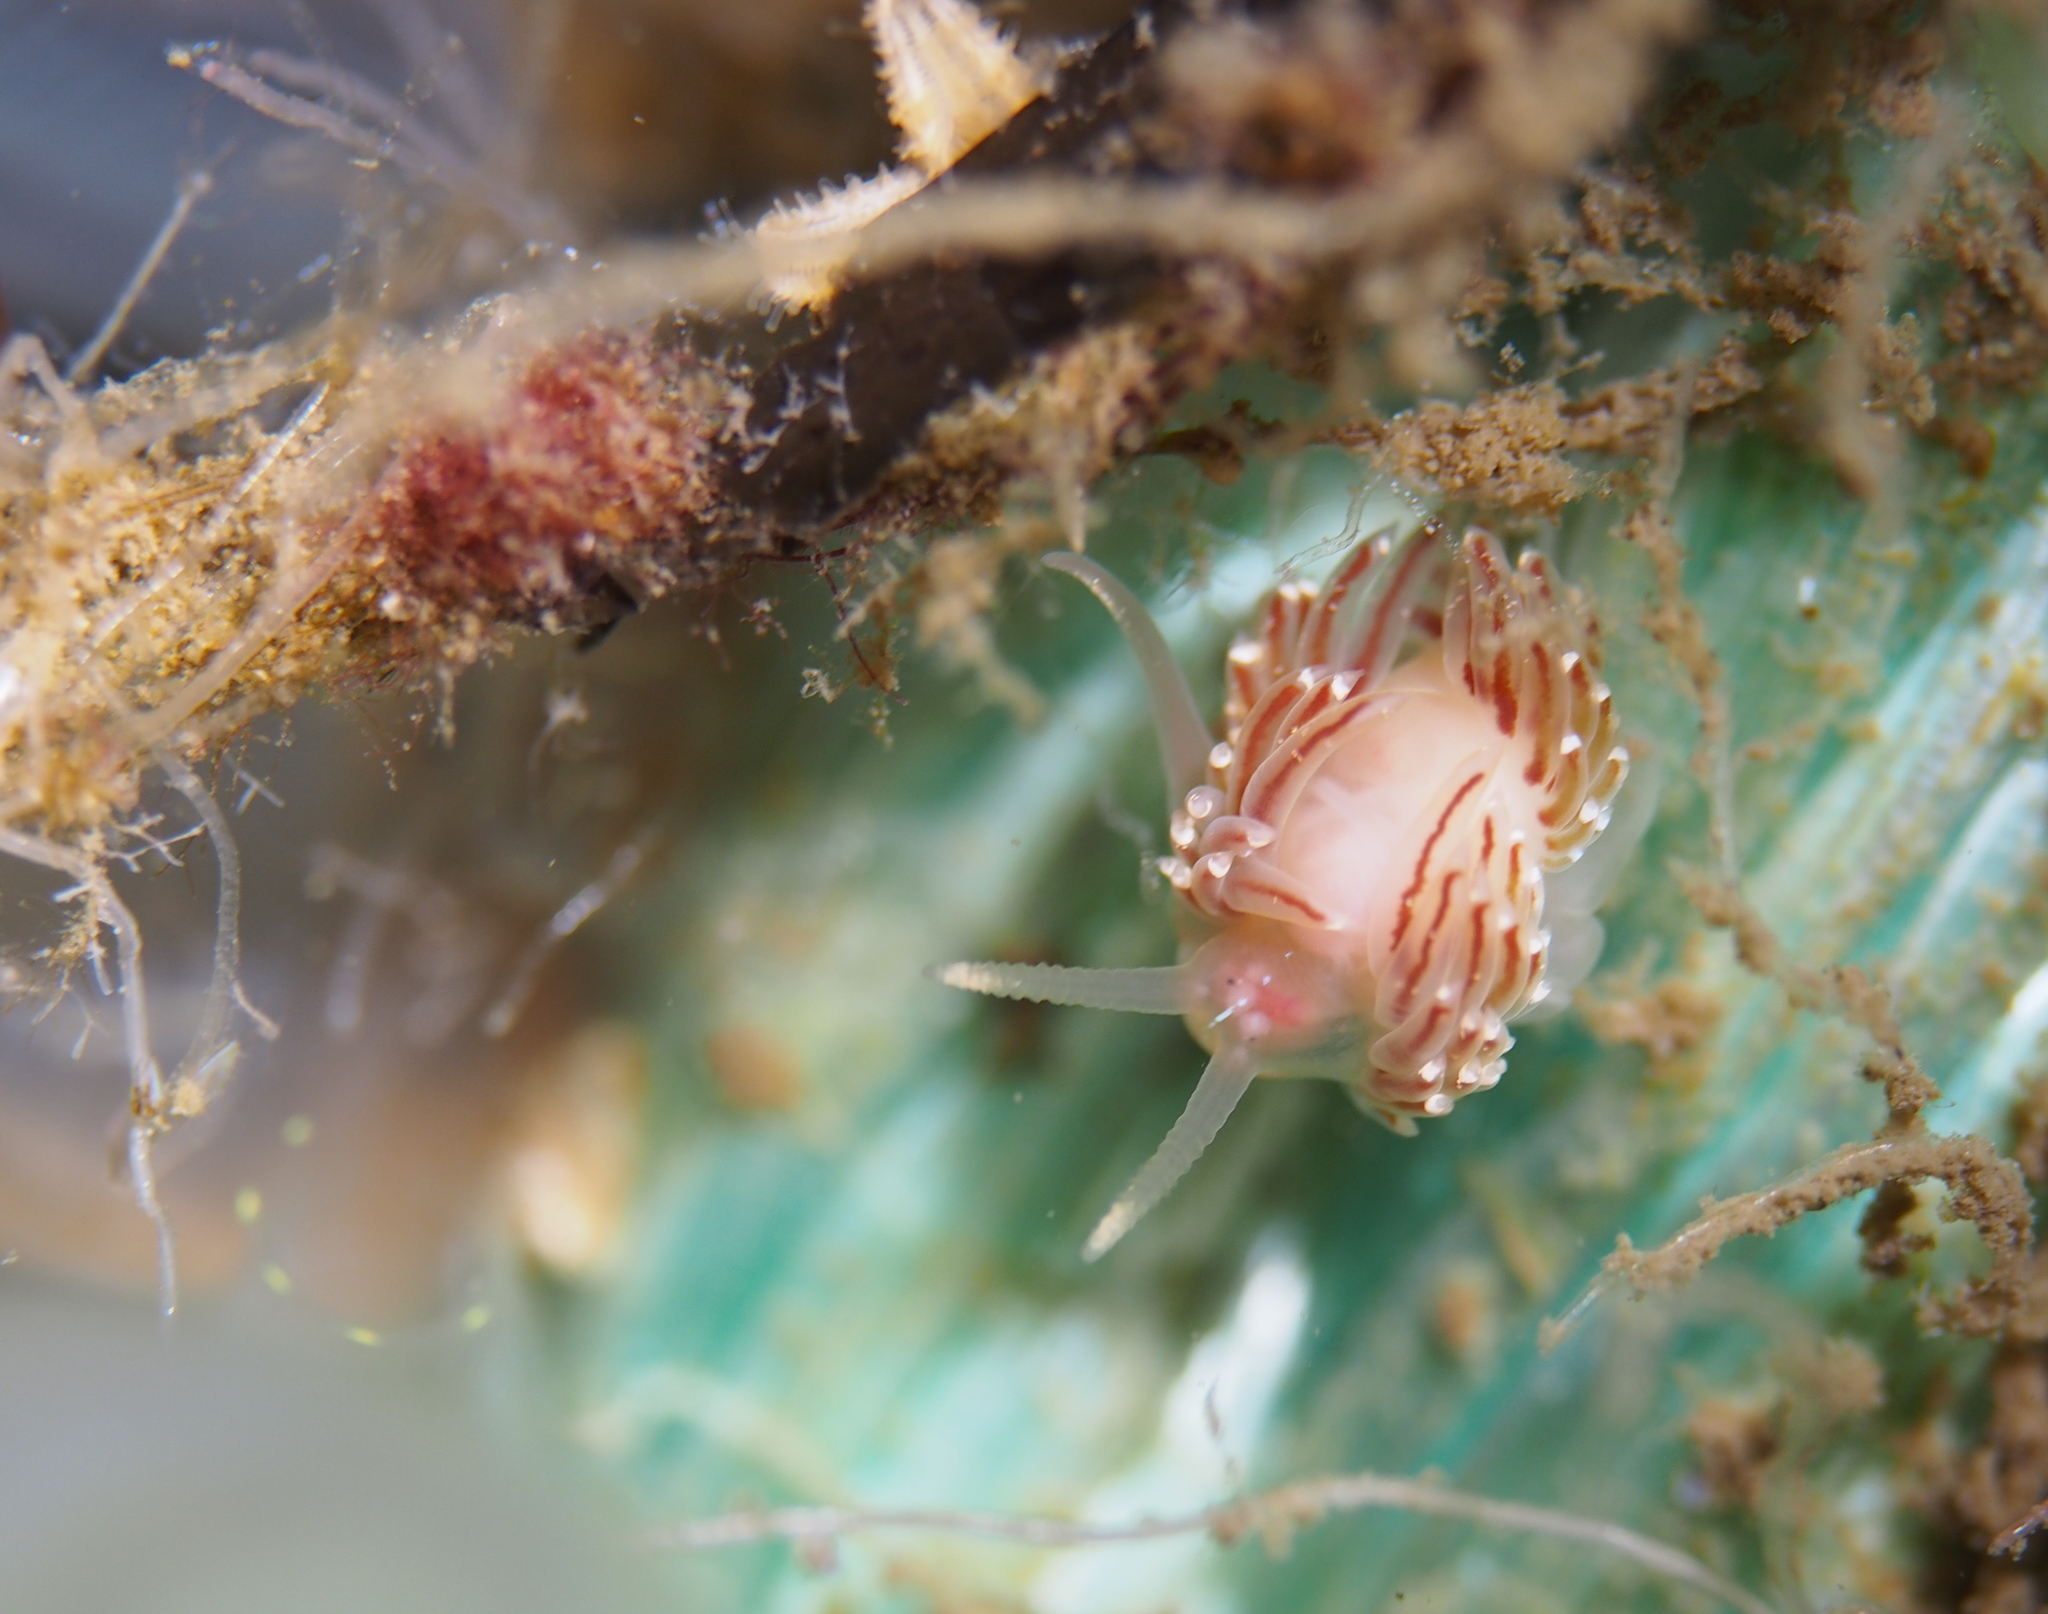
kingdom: Animalia
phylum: Mollusca
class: Gastropoda
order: Nudibranchia
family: Facelinidae
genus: Facelina
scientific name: Facelina bostoniensis
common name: Boston facelina
